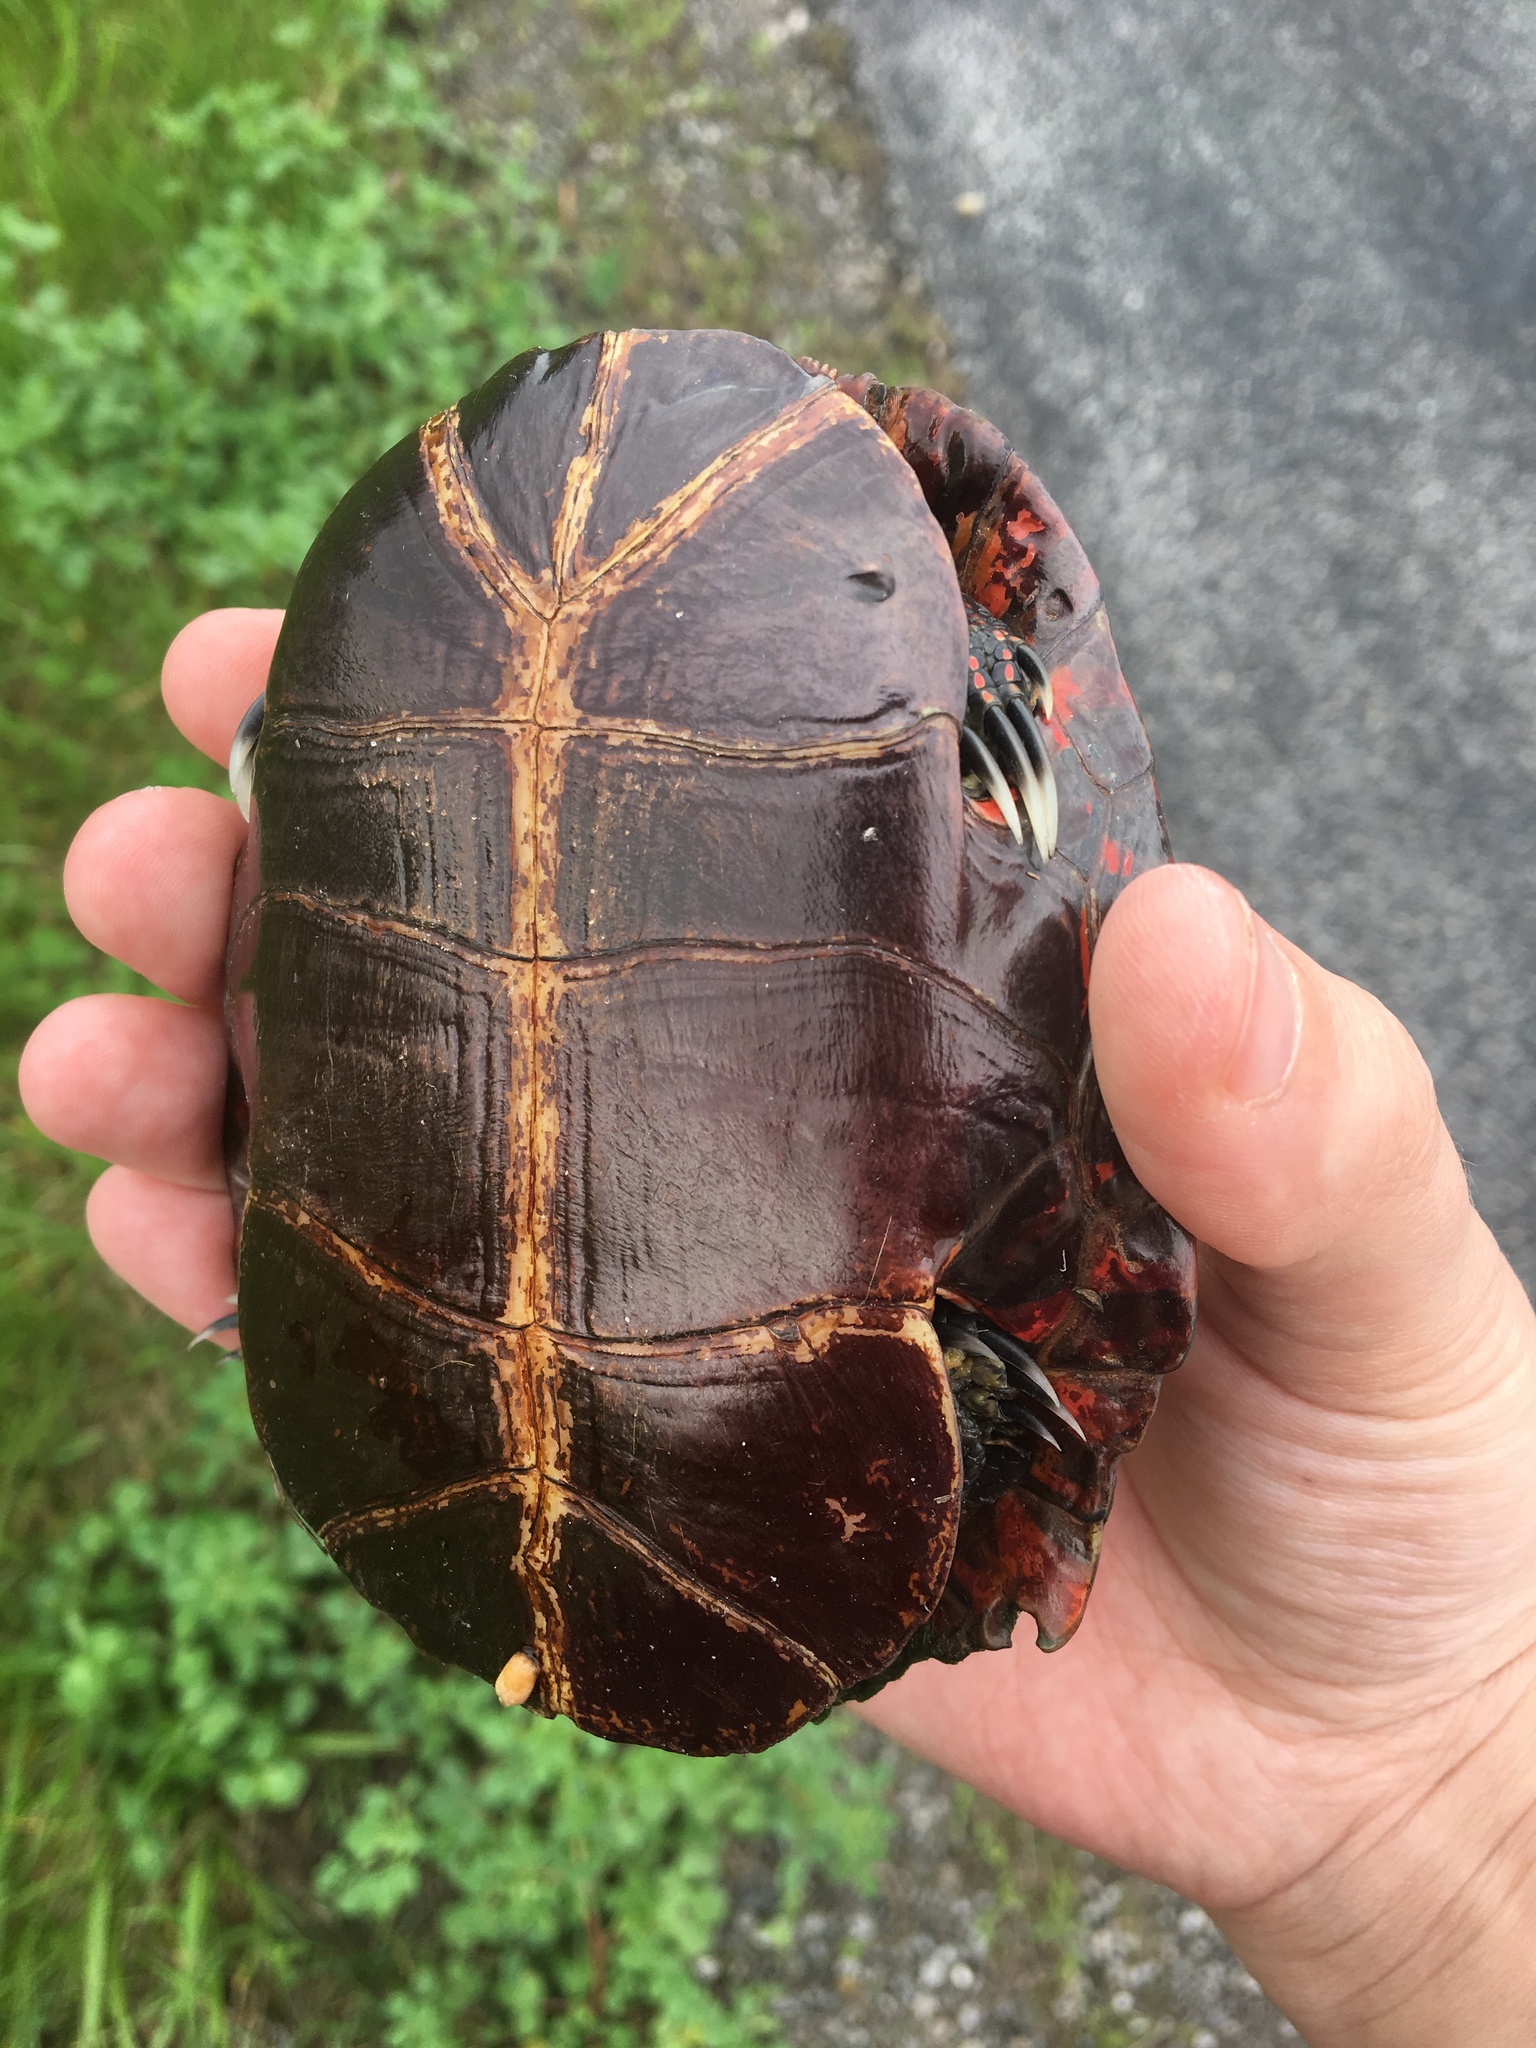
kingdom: Animalia
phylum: Chordata
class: Testudines
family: Emydidae
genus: Chrysemys
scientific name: Chrysemys picta
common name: Painted turtle
